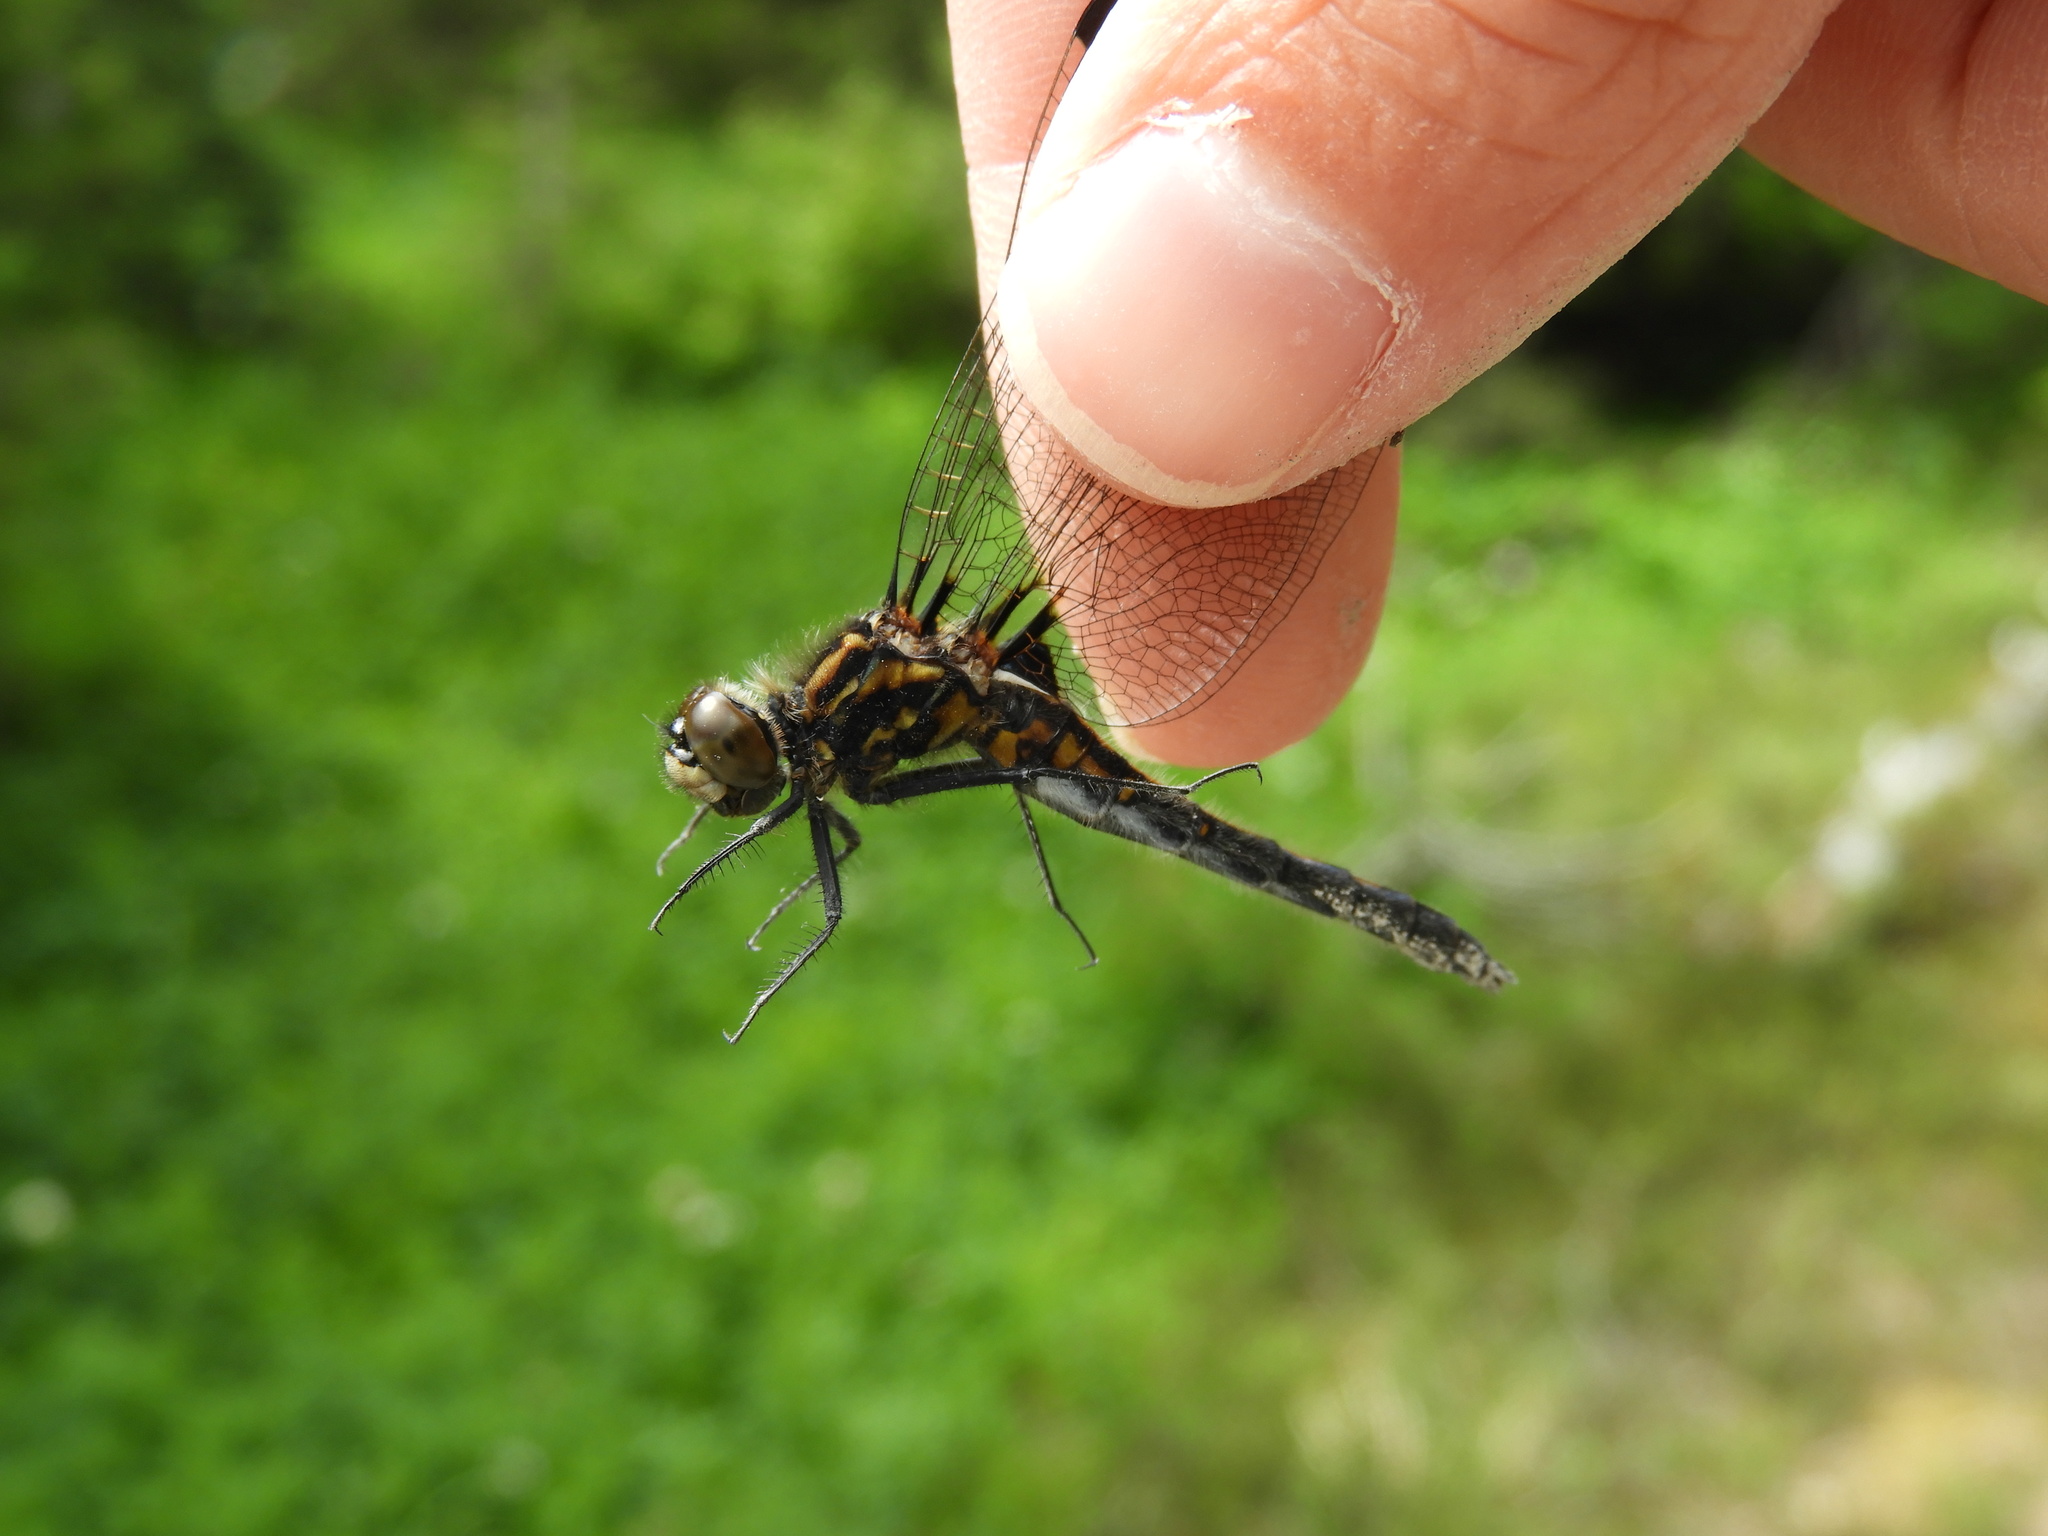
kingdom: Animalia
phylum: Arthropoda
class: Insecta
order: Odonata
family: Libellulidae
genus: Leucorrhinia
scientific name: Leucorrhinia hudsonica
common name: Hudsonian whiteface
